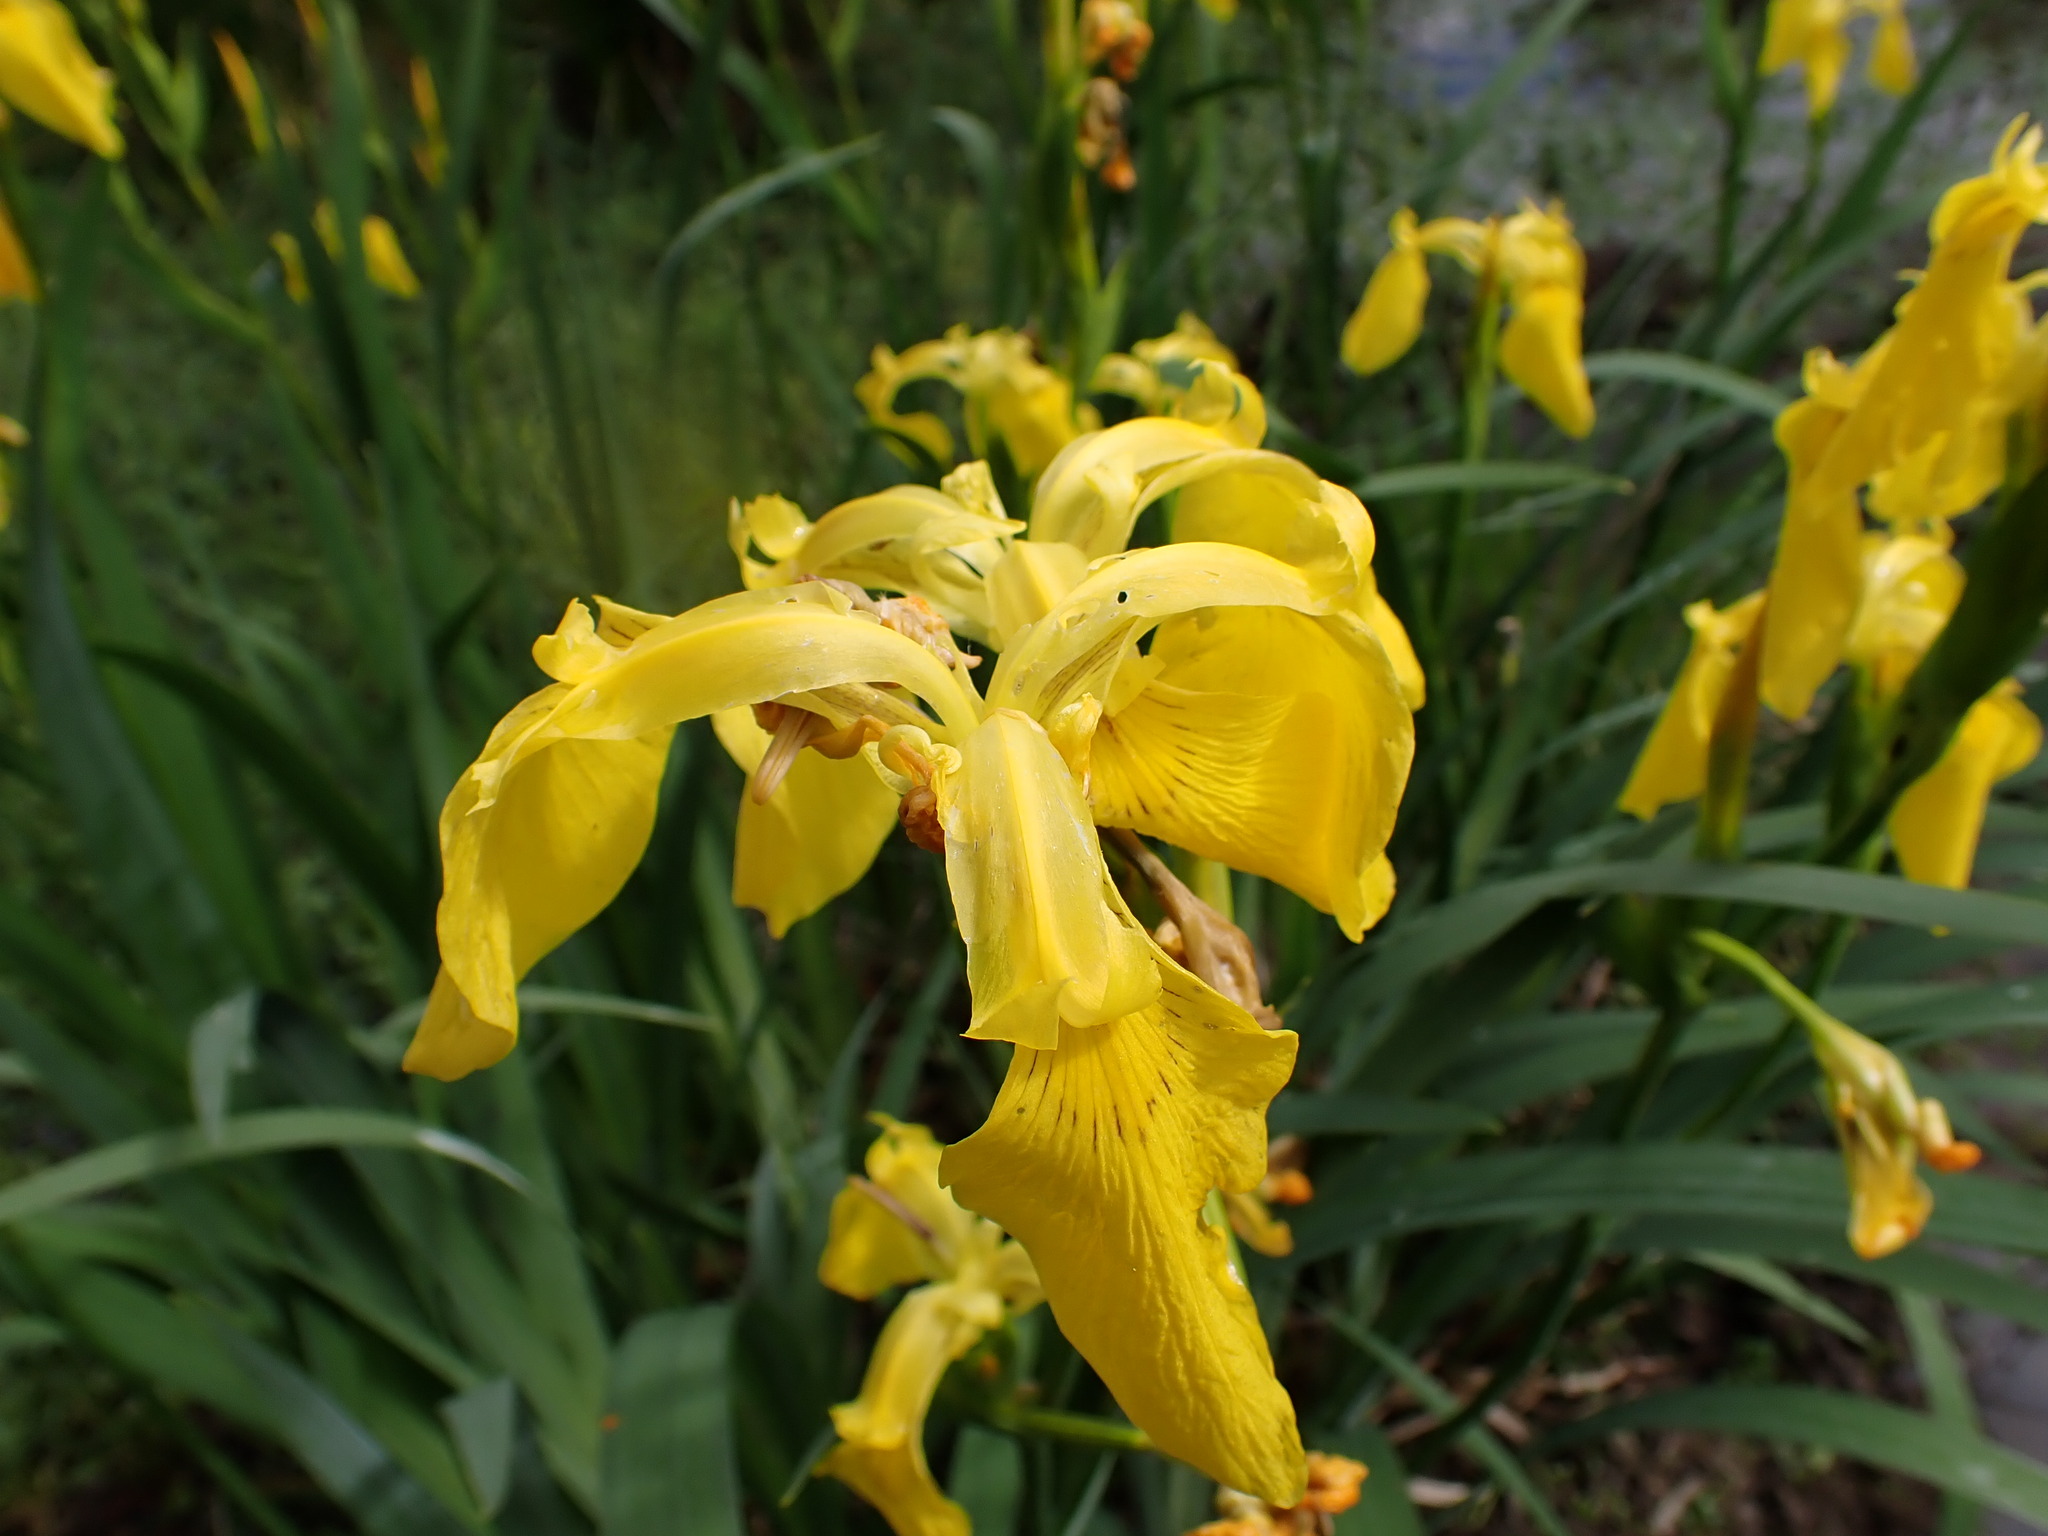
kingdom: Plantae
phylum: Tracheophyta
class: Liliopsida
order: Asparagales
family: Iridaceae
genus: Iris
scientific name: Iris pseudacorus
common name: Yellow flag
